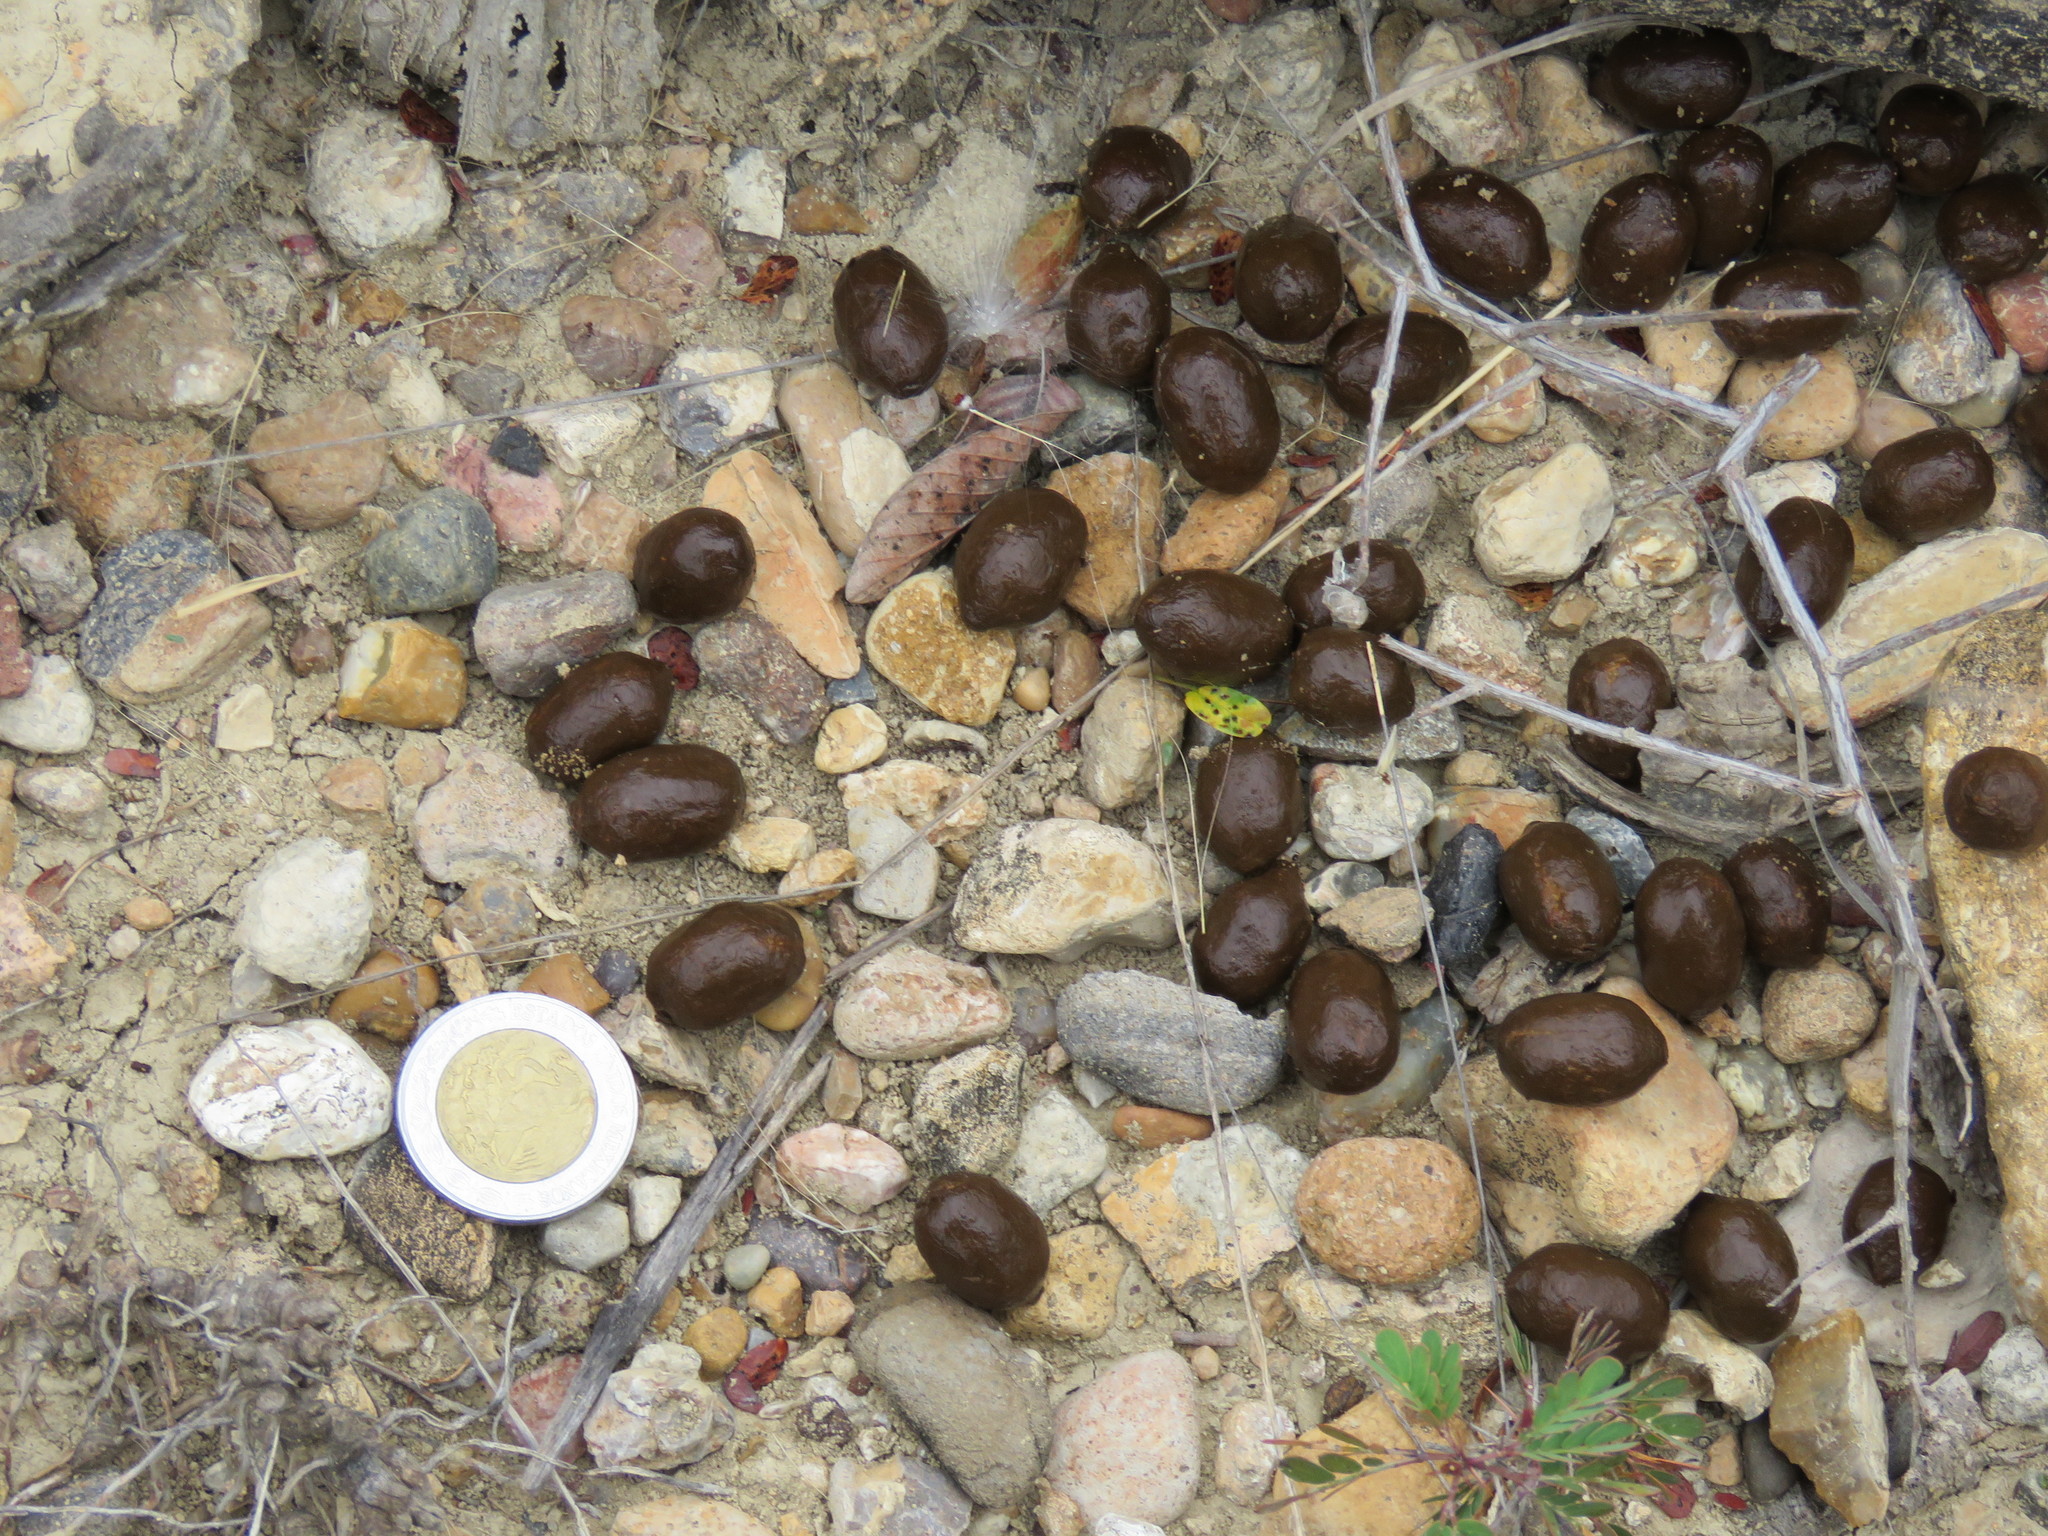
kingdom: Animalia
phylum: Chordata
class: Mammalia
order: Artiodactyla
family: Cervidae
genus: Odocoileus
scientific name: Odocoileus virginianus
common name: White-tailed deer
